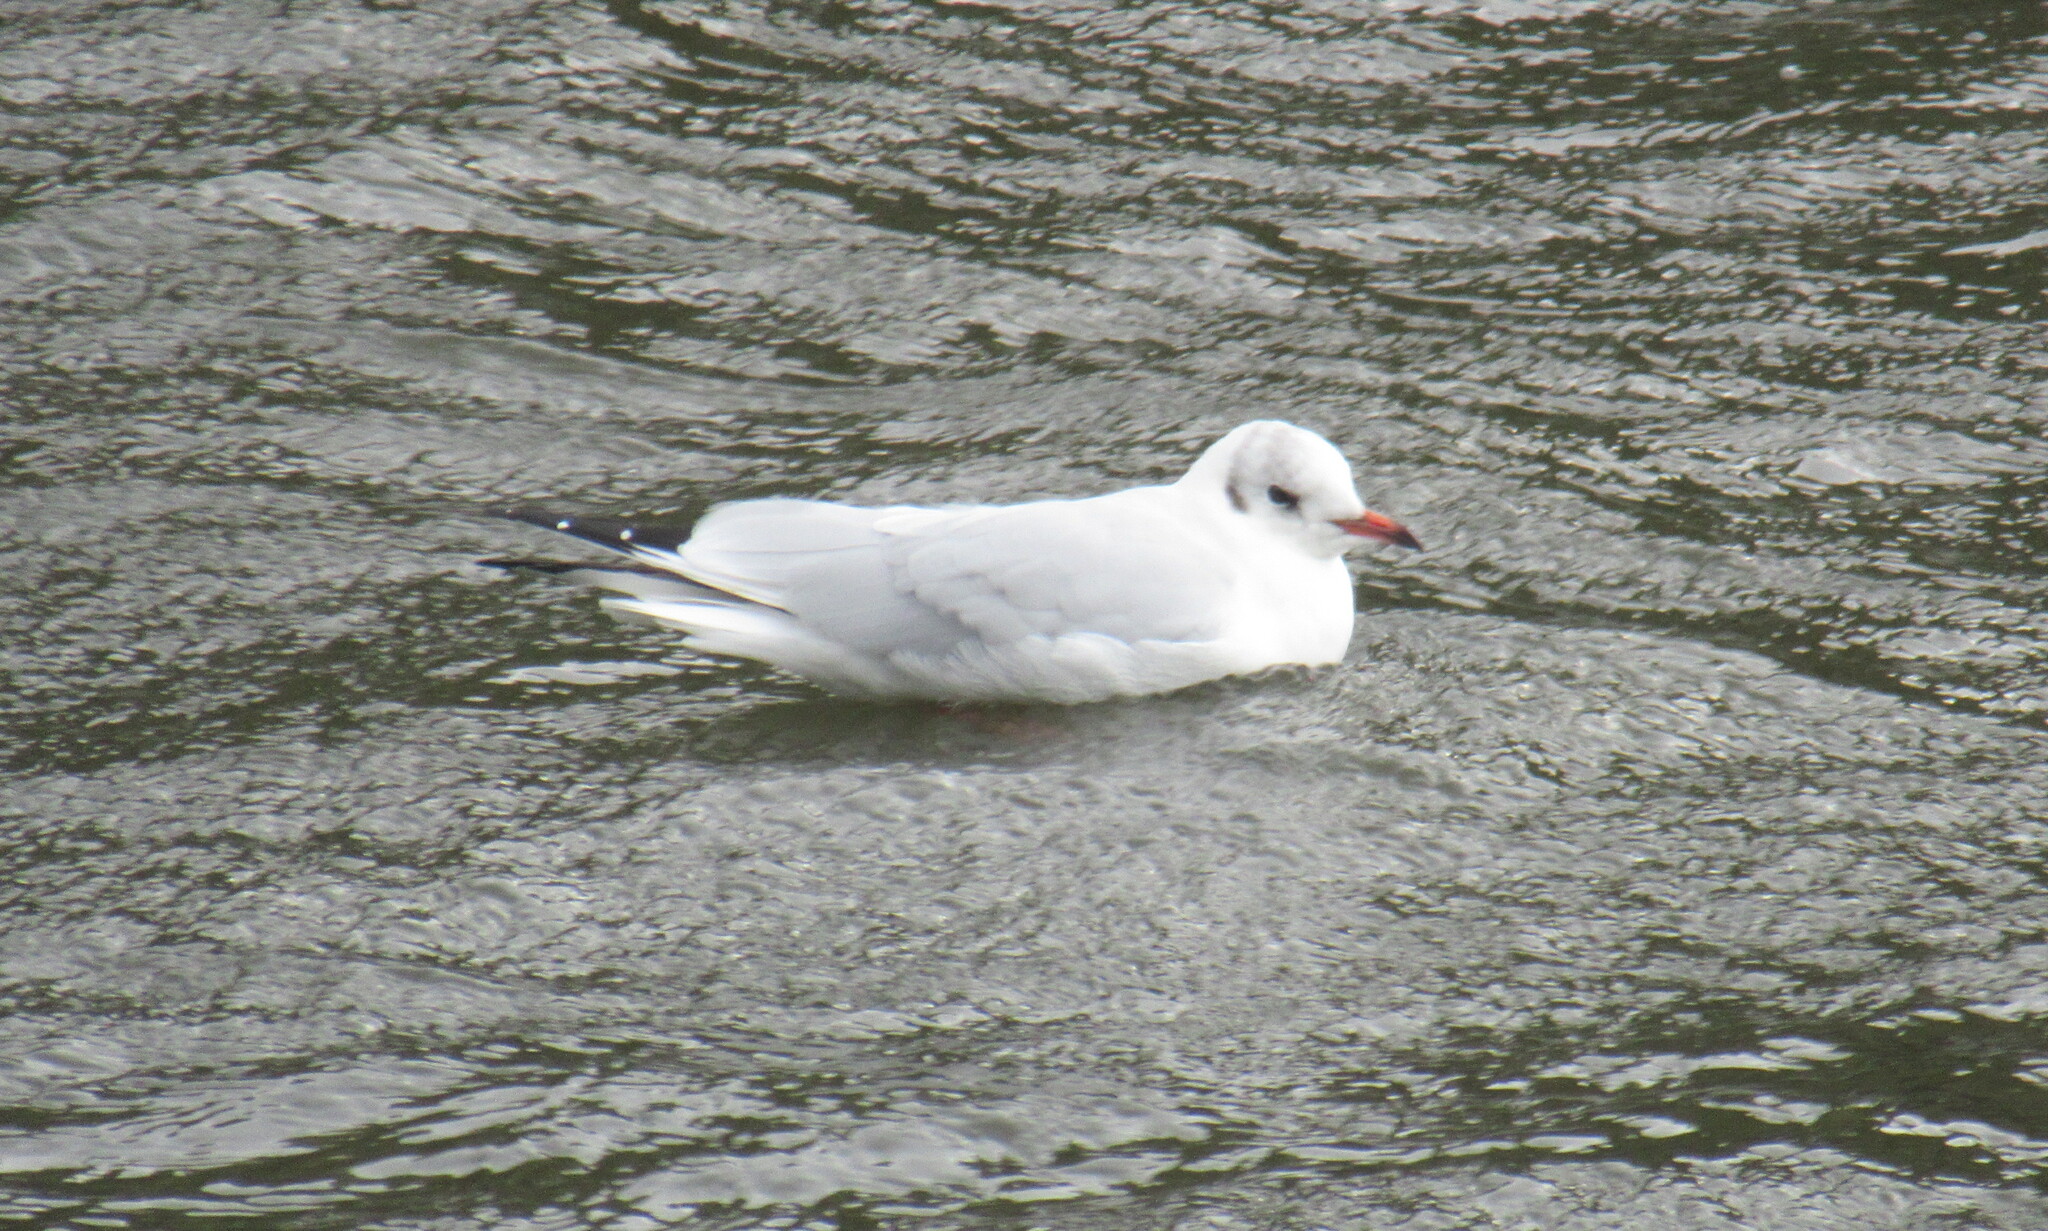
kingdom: Animalia
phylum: Chordata
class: Aves
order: Charadriiformes
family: Laridae
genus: Chroicocephalus
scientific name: Chroicocephalus ridibundus
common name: Black-headed gull
